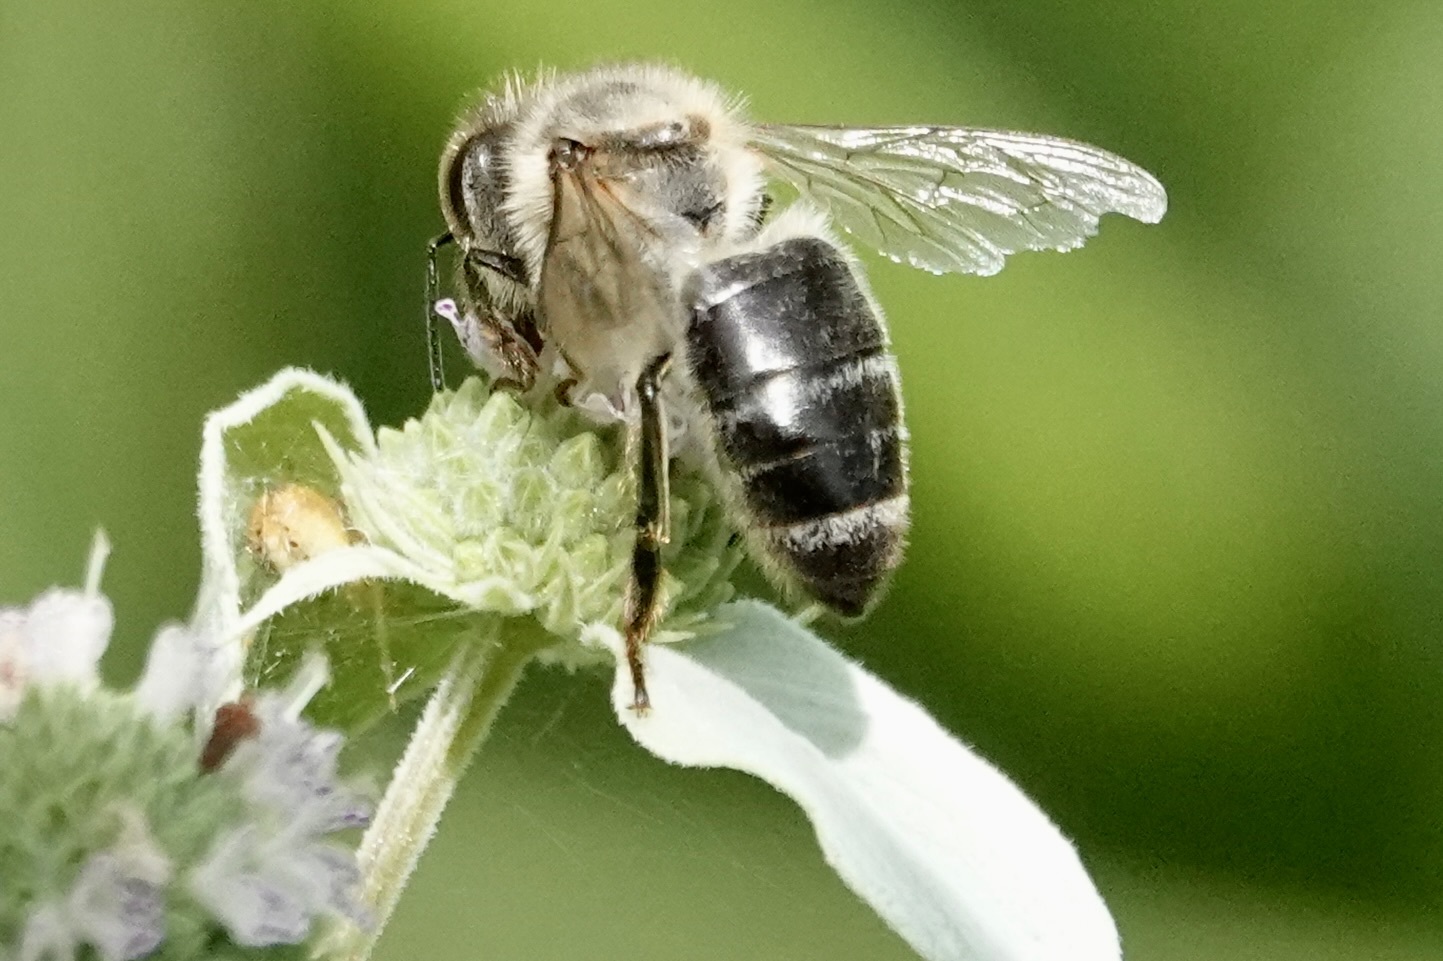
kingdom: Animalia
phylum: Arthropoda
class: Insecta
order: Hymenoptera
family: Apidae
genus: Apis
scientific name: Apis mellifera
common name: Honey bee
